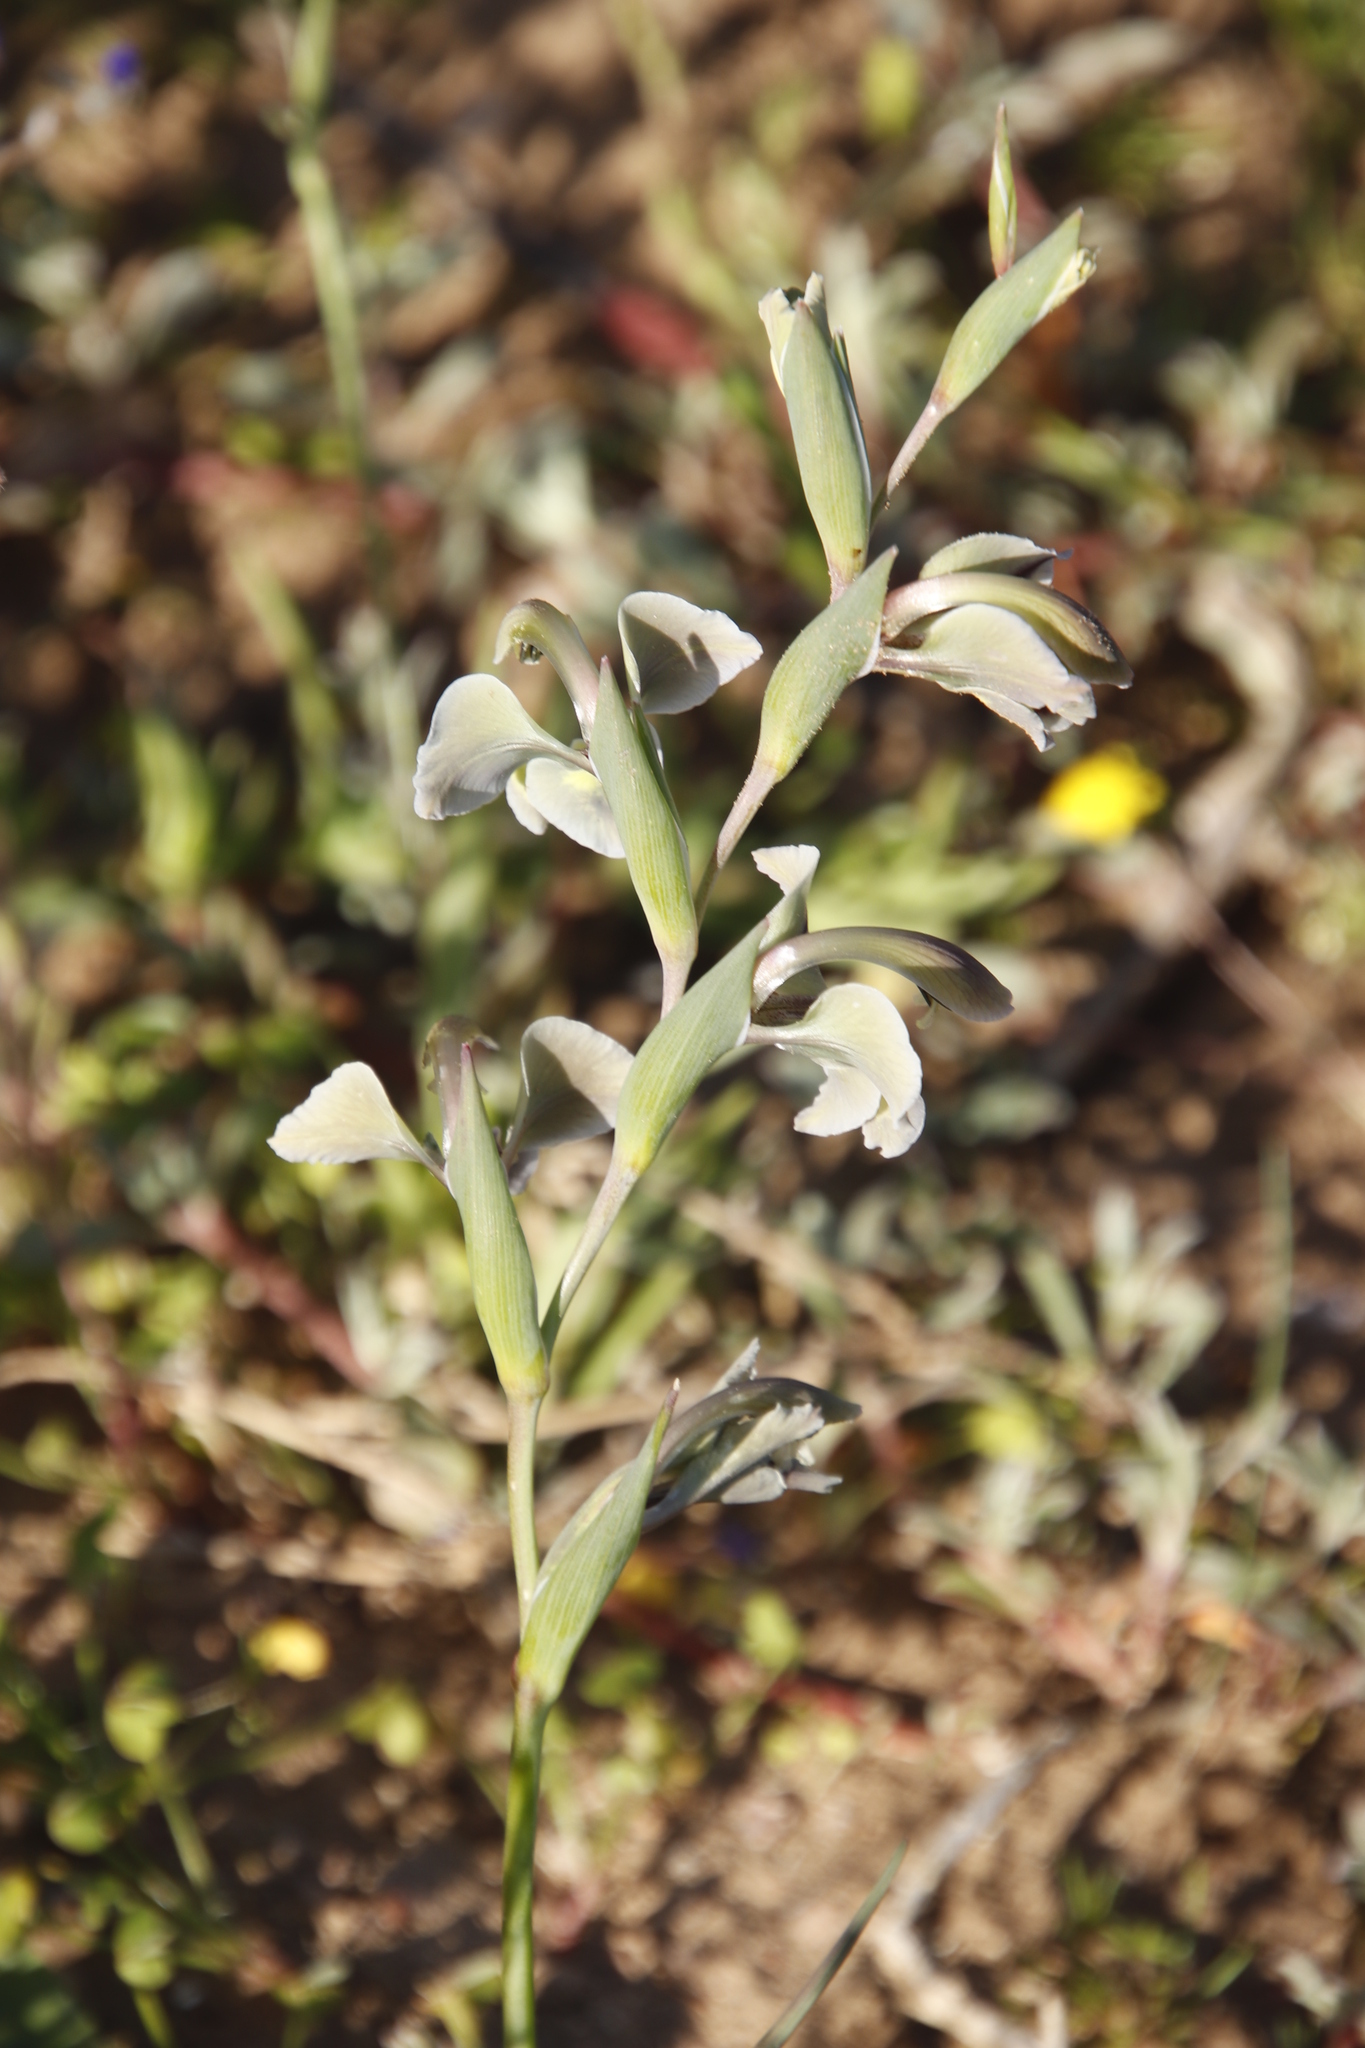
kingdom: Plantae
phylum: Tracheophyta
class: Liliopsida
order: Asparagales
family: Iridaceae
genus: Gladiolus
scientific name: Gladiolus orchidiflorus
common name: Gray kalkoentjie
